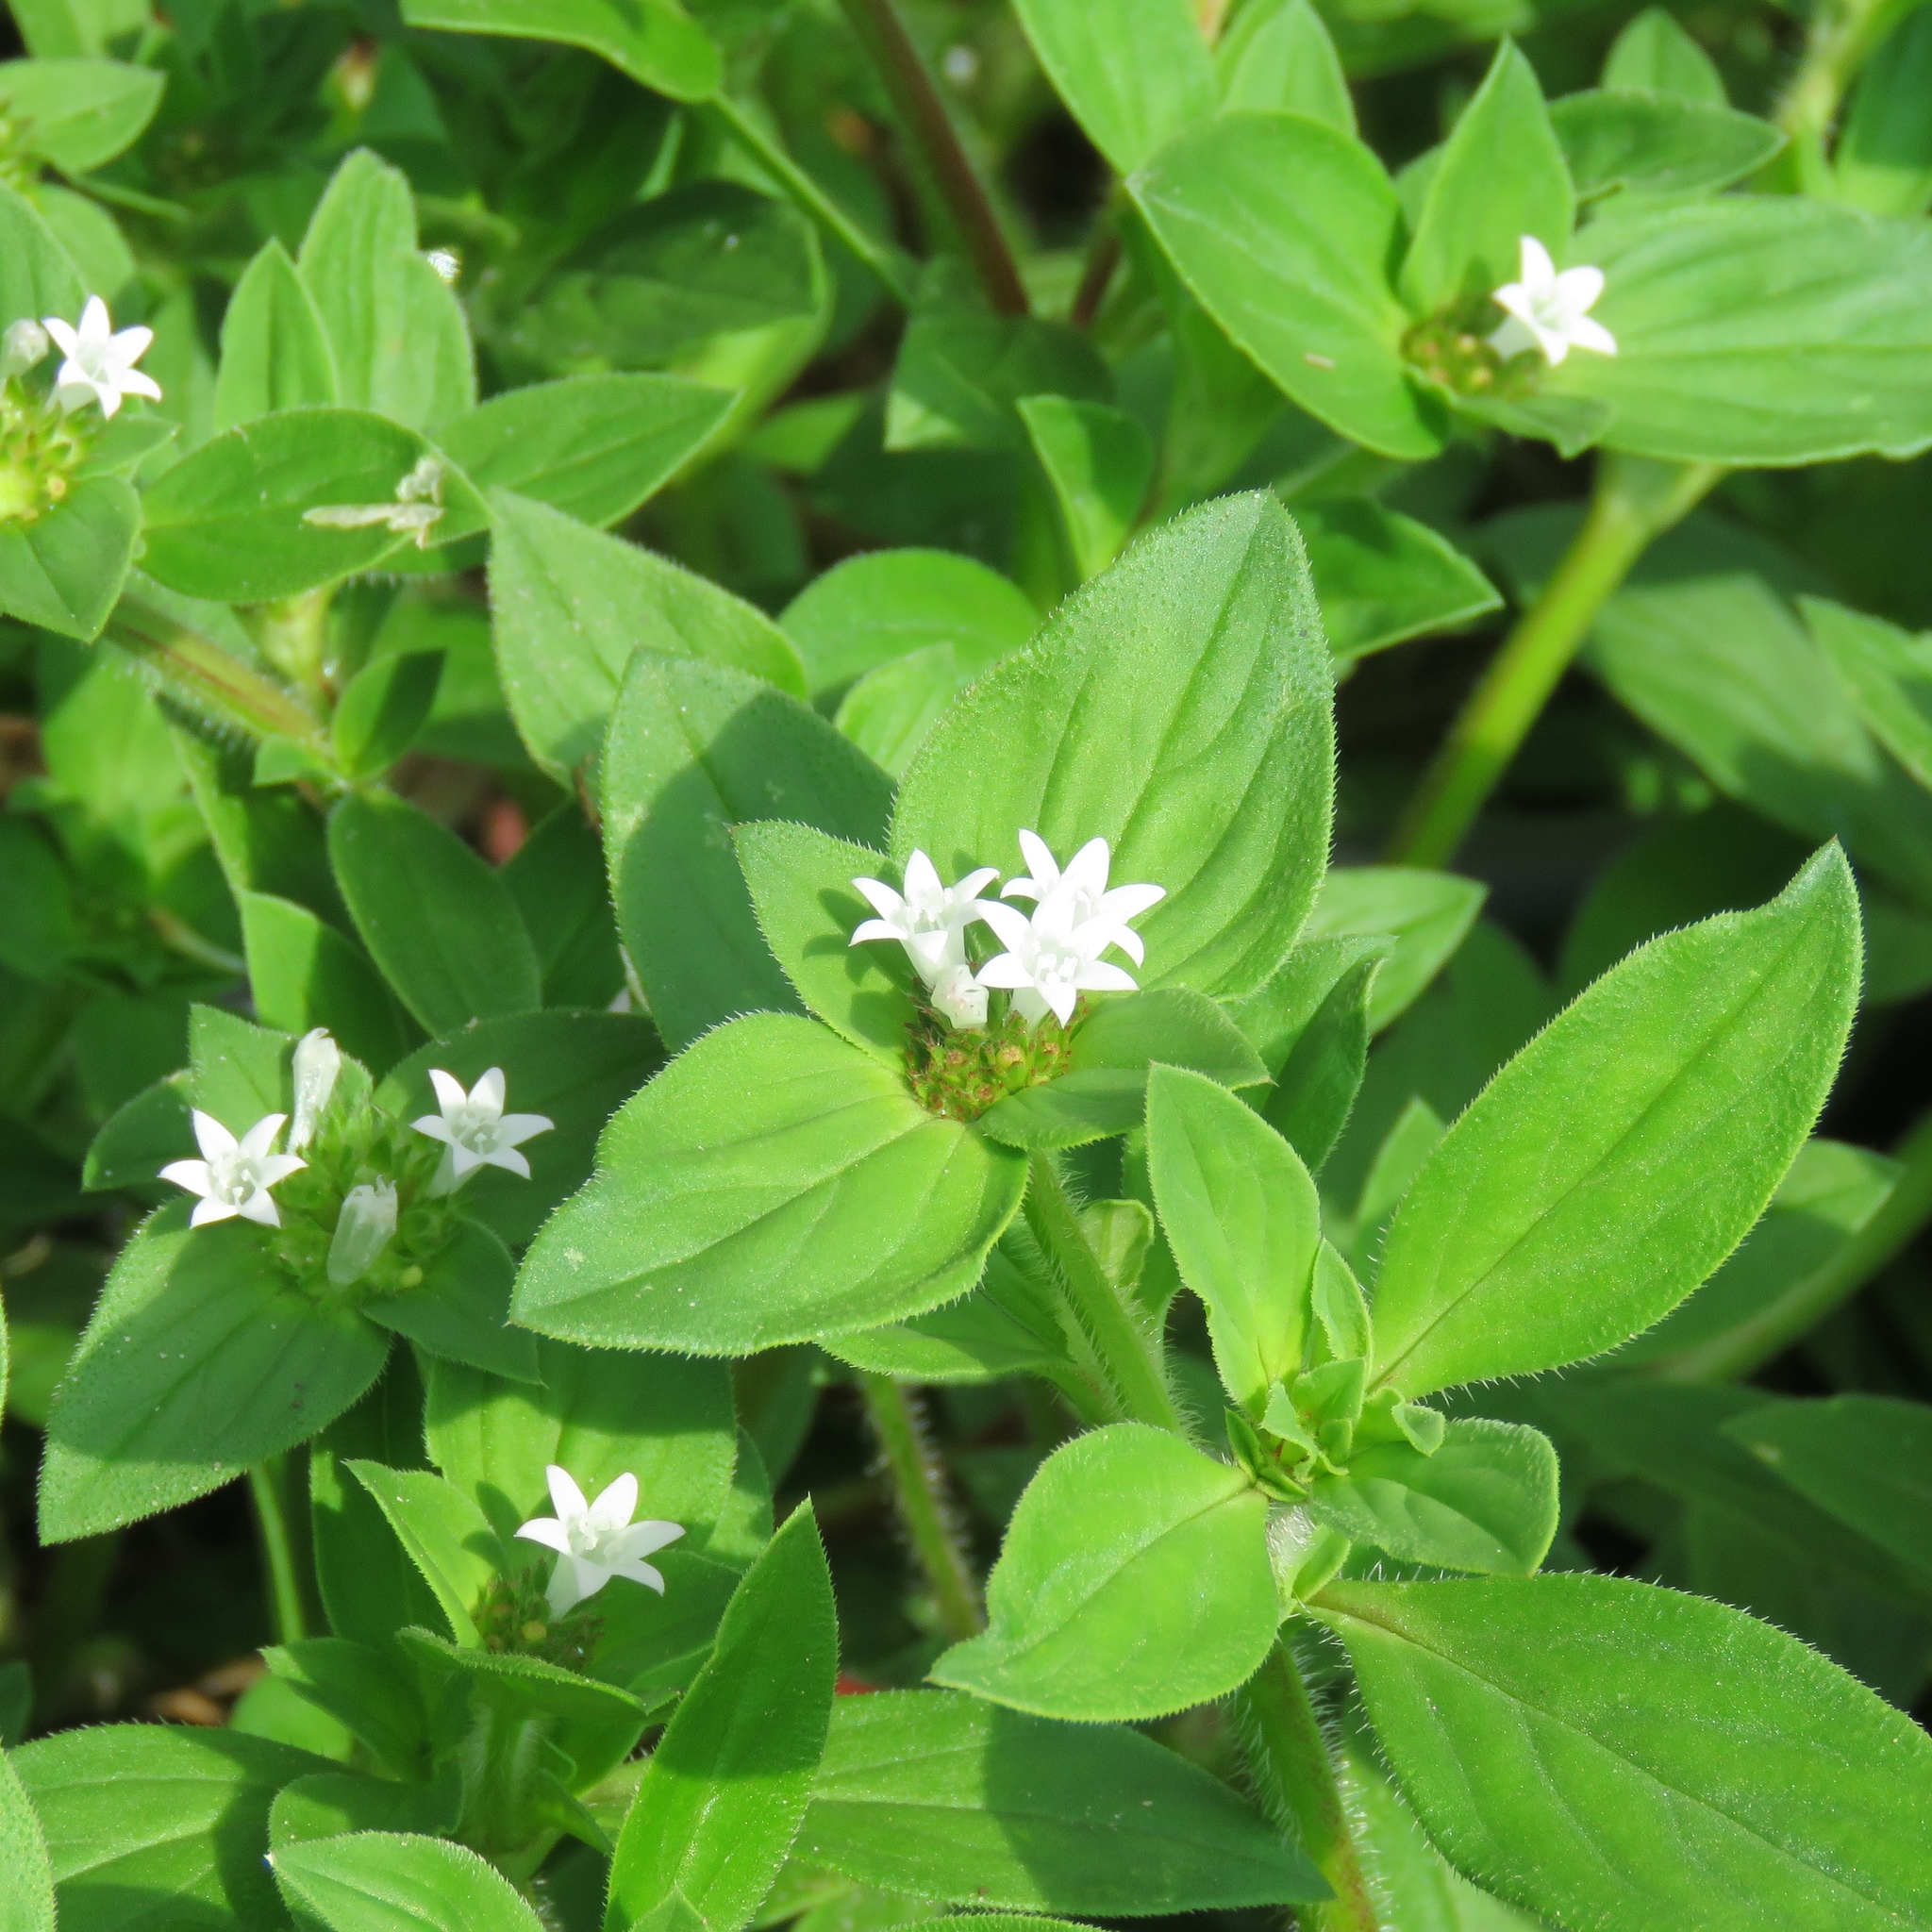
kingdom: Plantae
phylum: Tracheophyta
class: Magnoliopsida
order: Gentianales
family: Rubiaceae
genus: Richardia
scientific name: Richardia brasiliensis
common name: Tropical mexican clover
